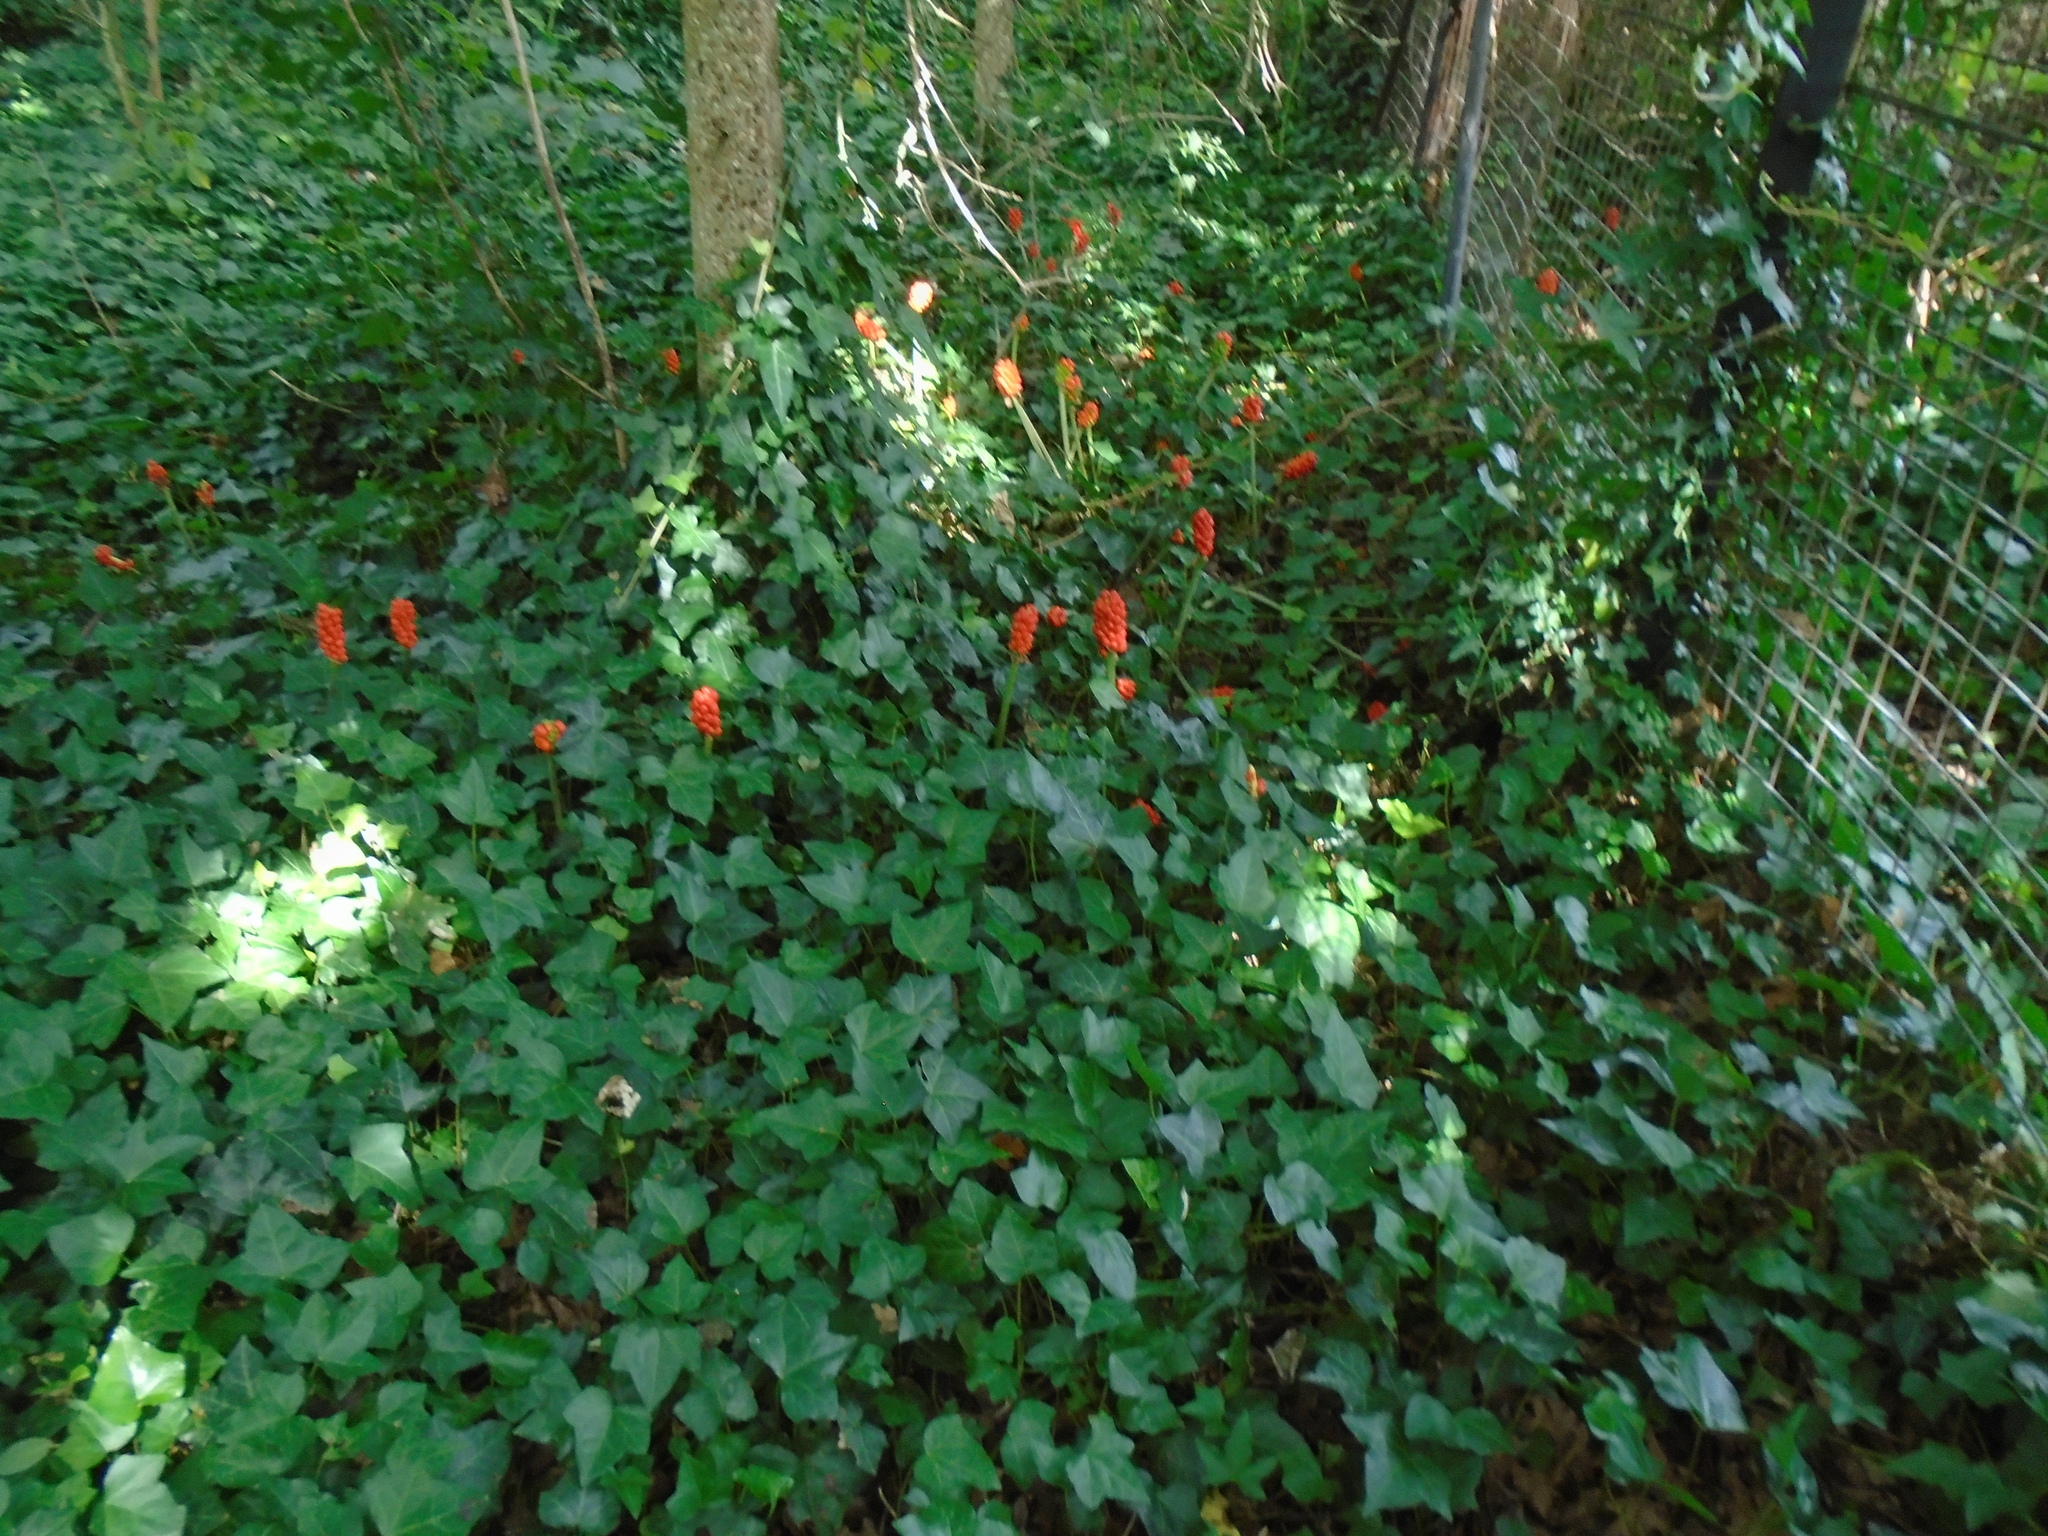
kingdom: Plantae
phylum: Tracheophyta
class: Liliopsida
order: Alismatales
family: Araceae
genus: Arum
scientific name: Arum maculatum
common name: Lords-and-ladies
